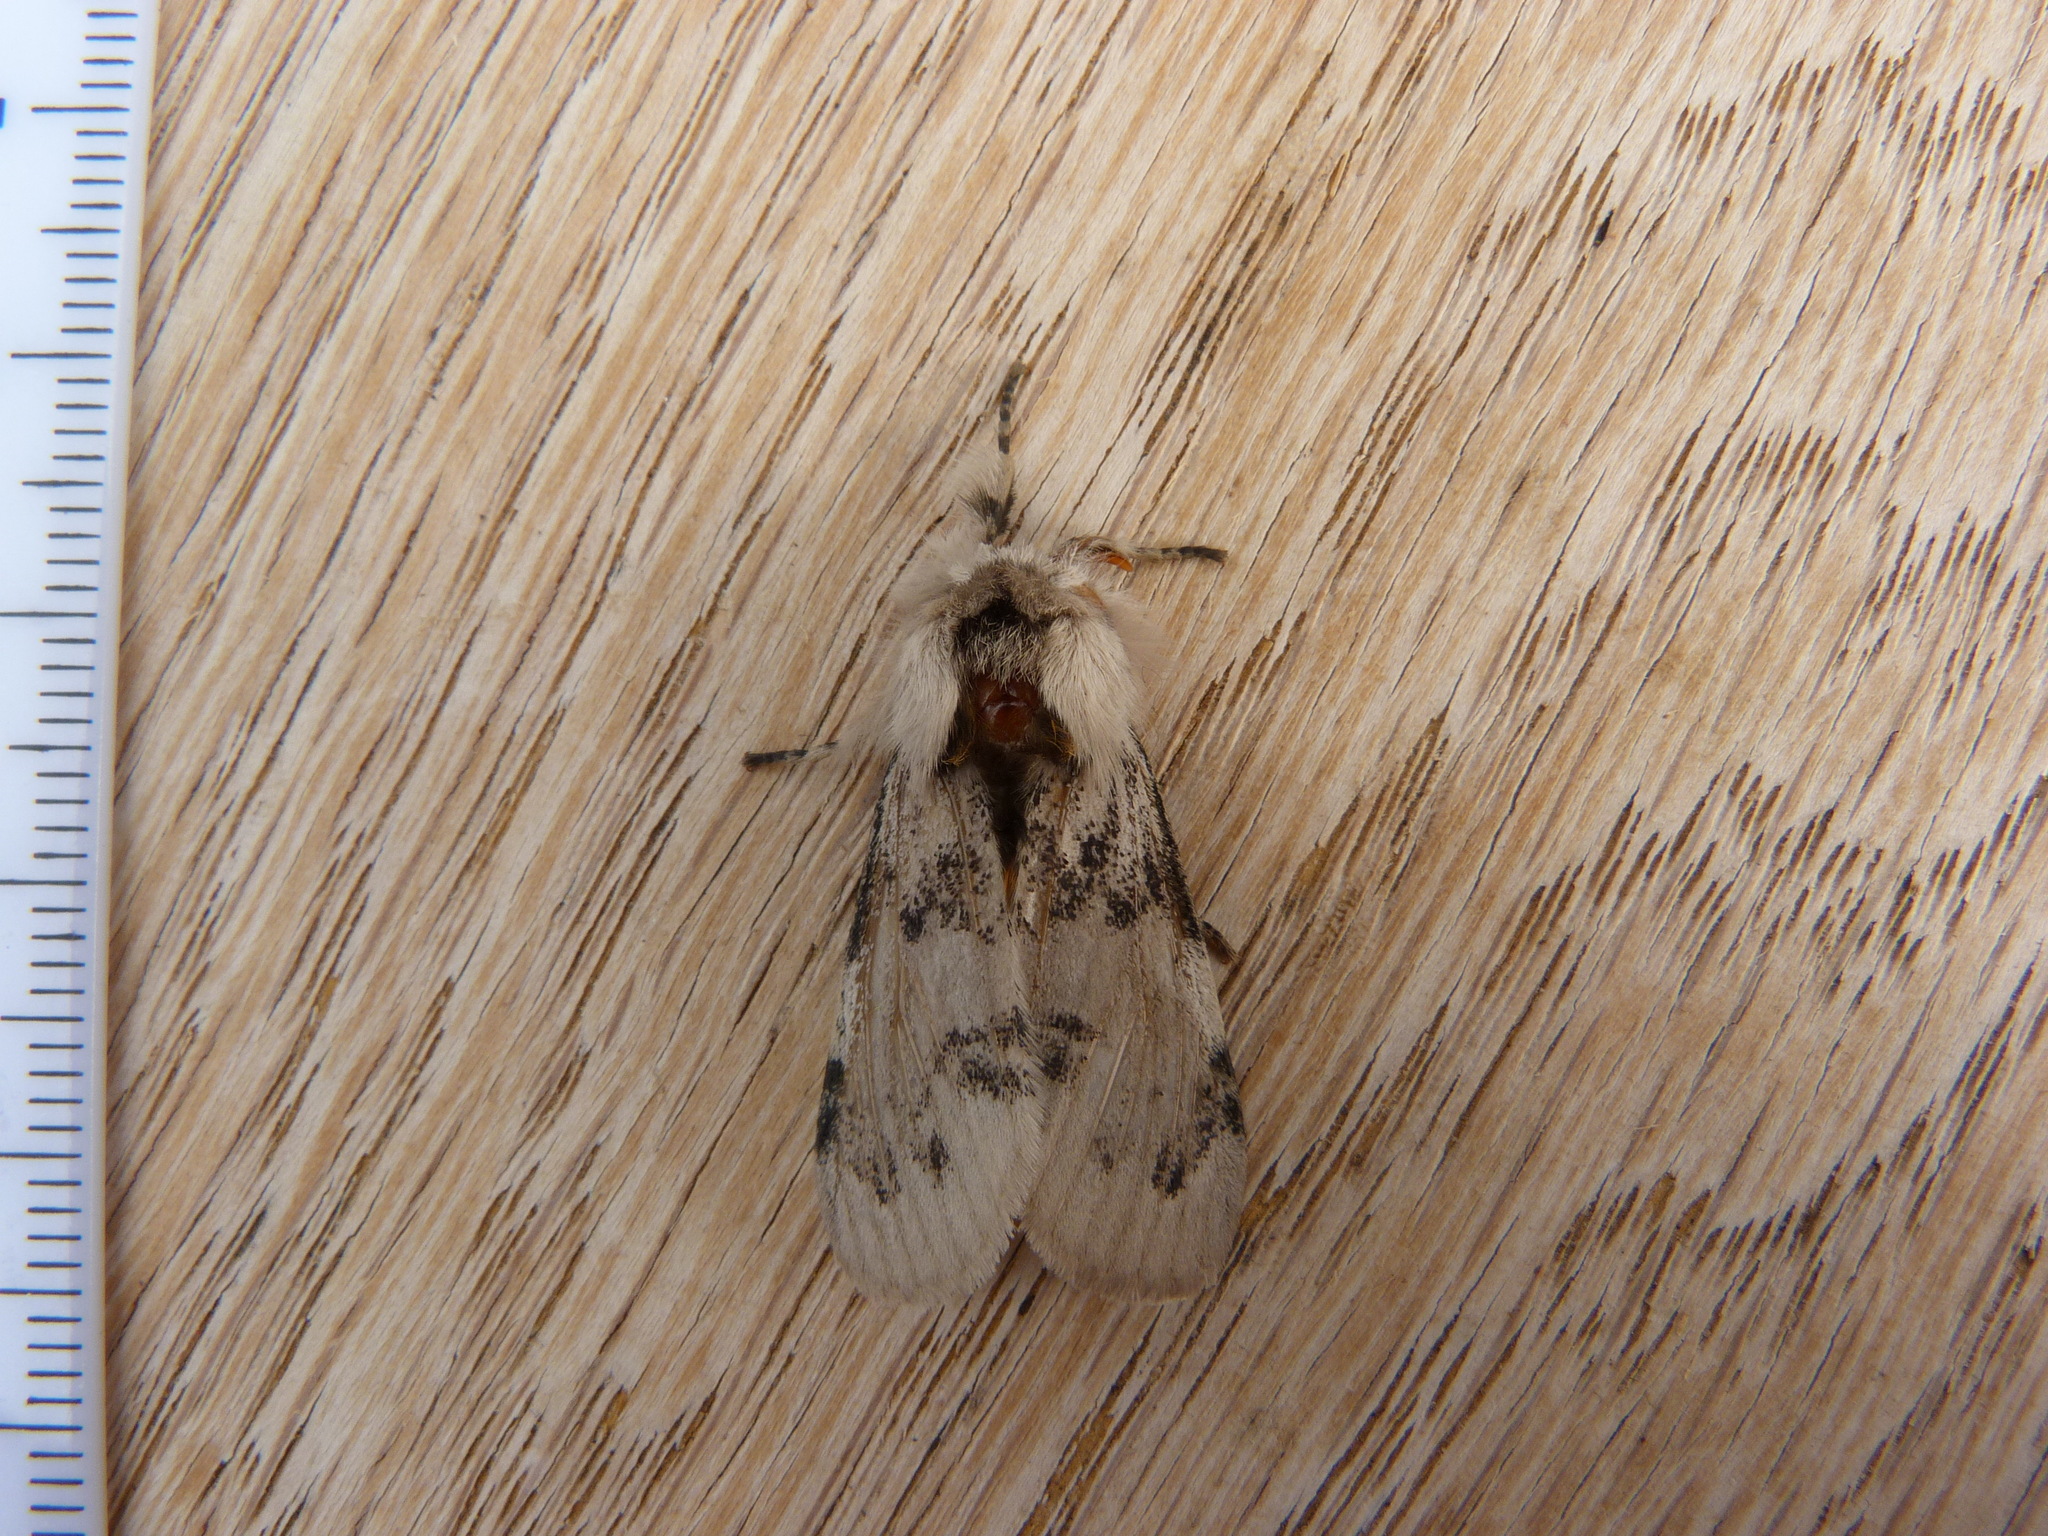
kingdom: Animalia
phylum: Arthropoda
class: Insecta
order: Lepidoptera
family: Erebidae
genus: Iropoca
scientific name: Iropoca rotundata
